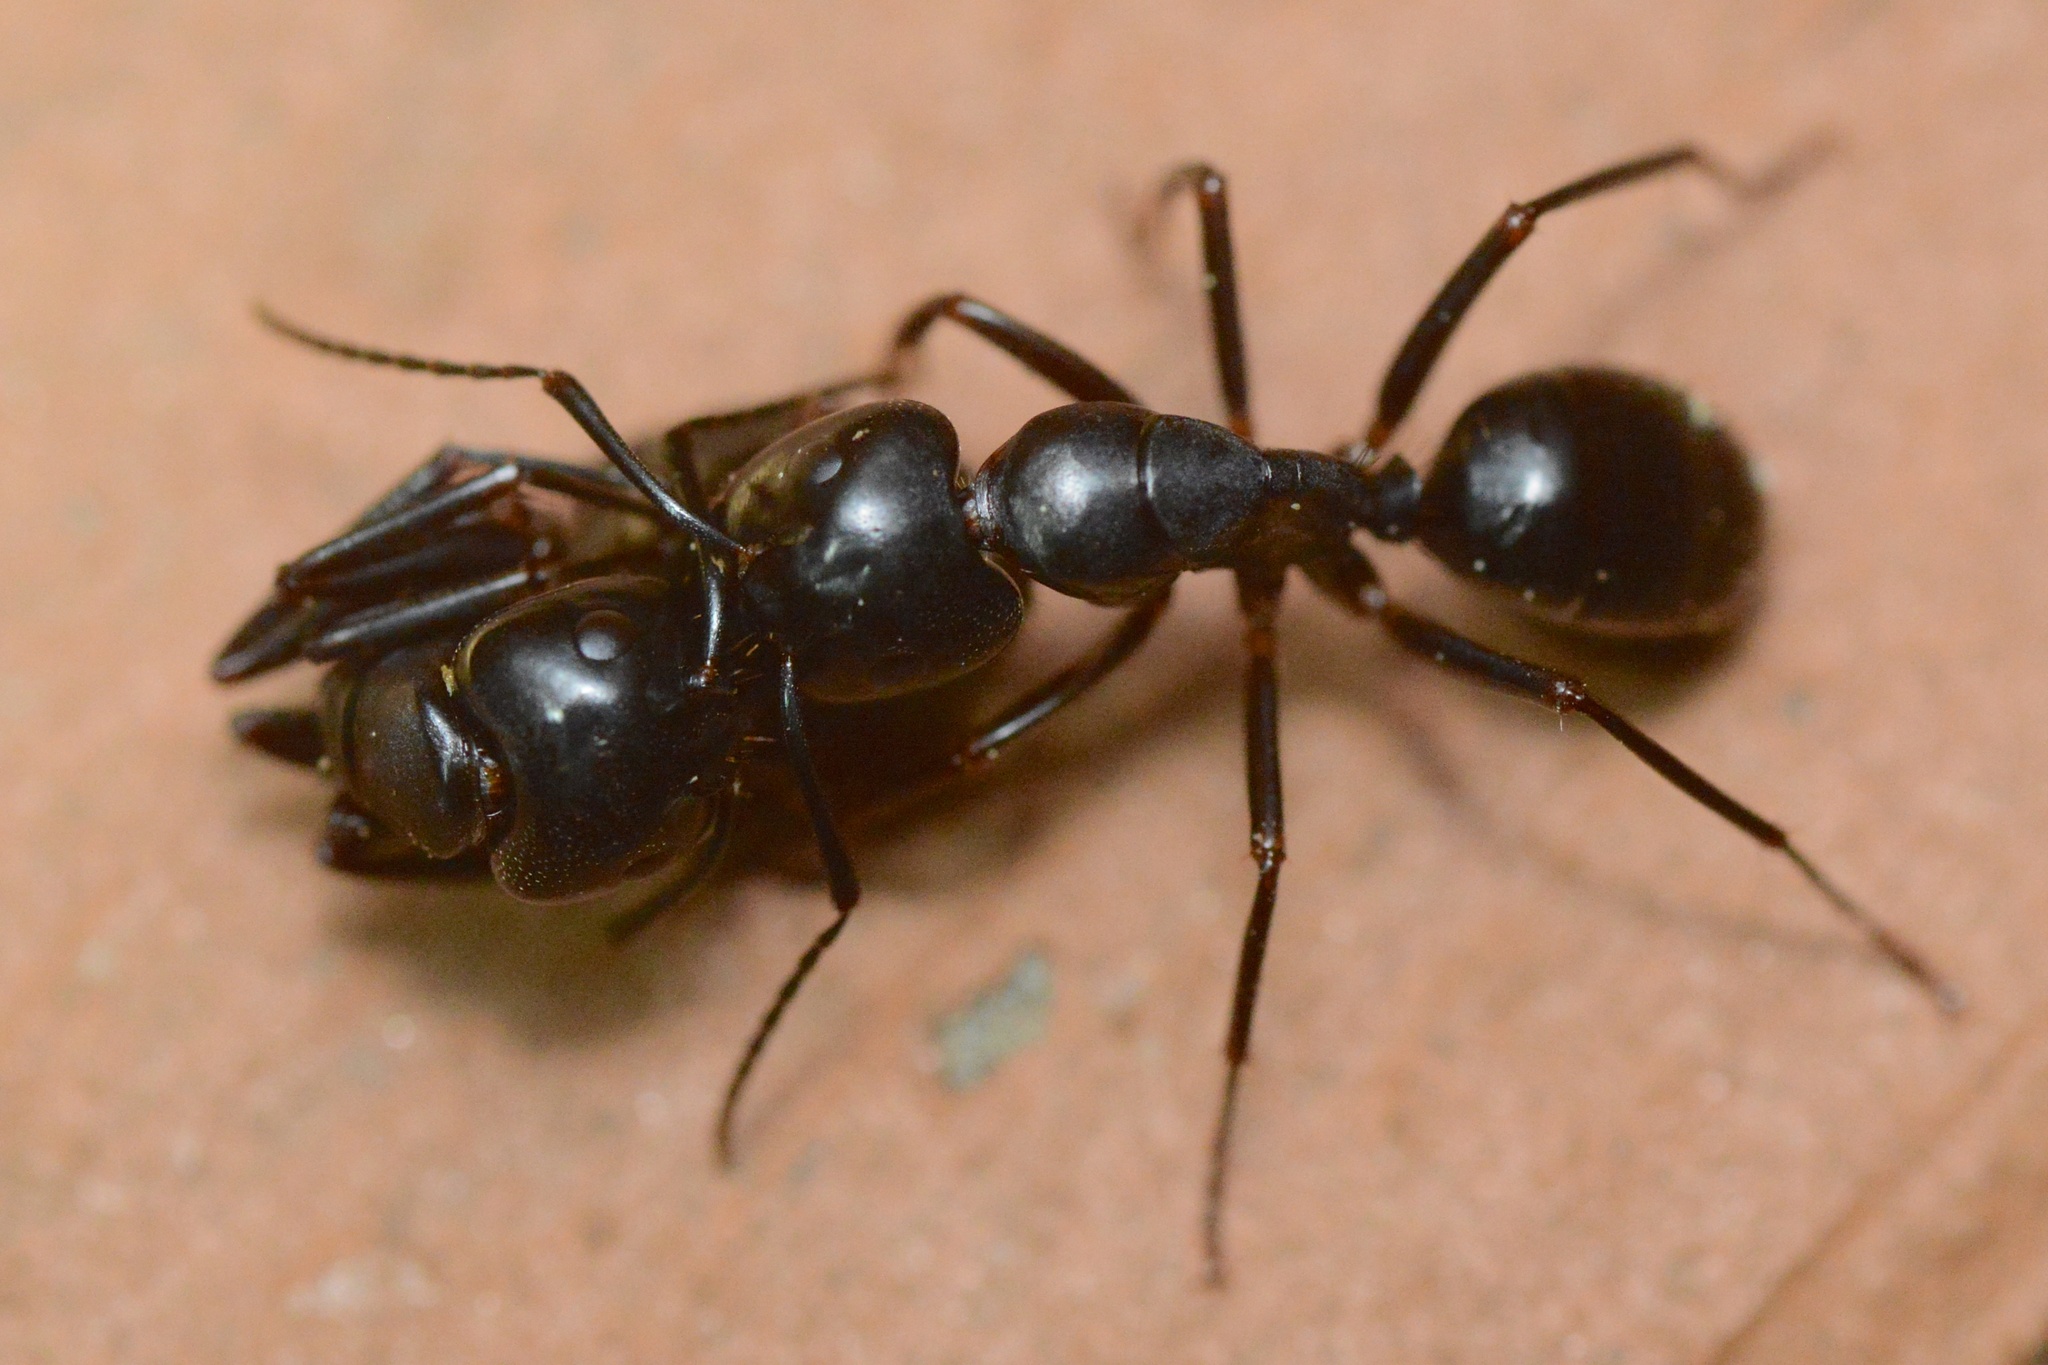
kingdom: Animalia
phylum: Arthropoda
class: Insecta
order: Hymenoptera
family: Formicidae
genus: Camponotus
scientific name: Camponotus laevigatus
